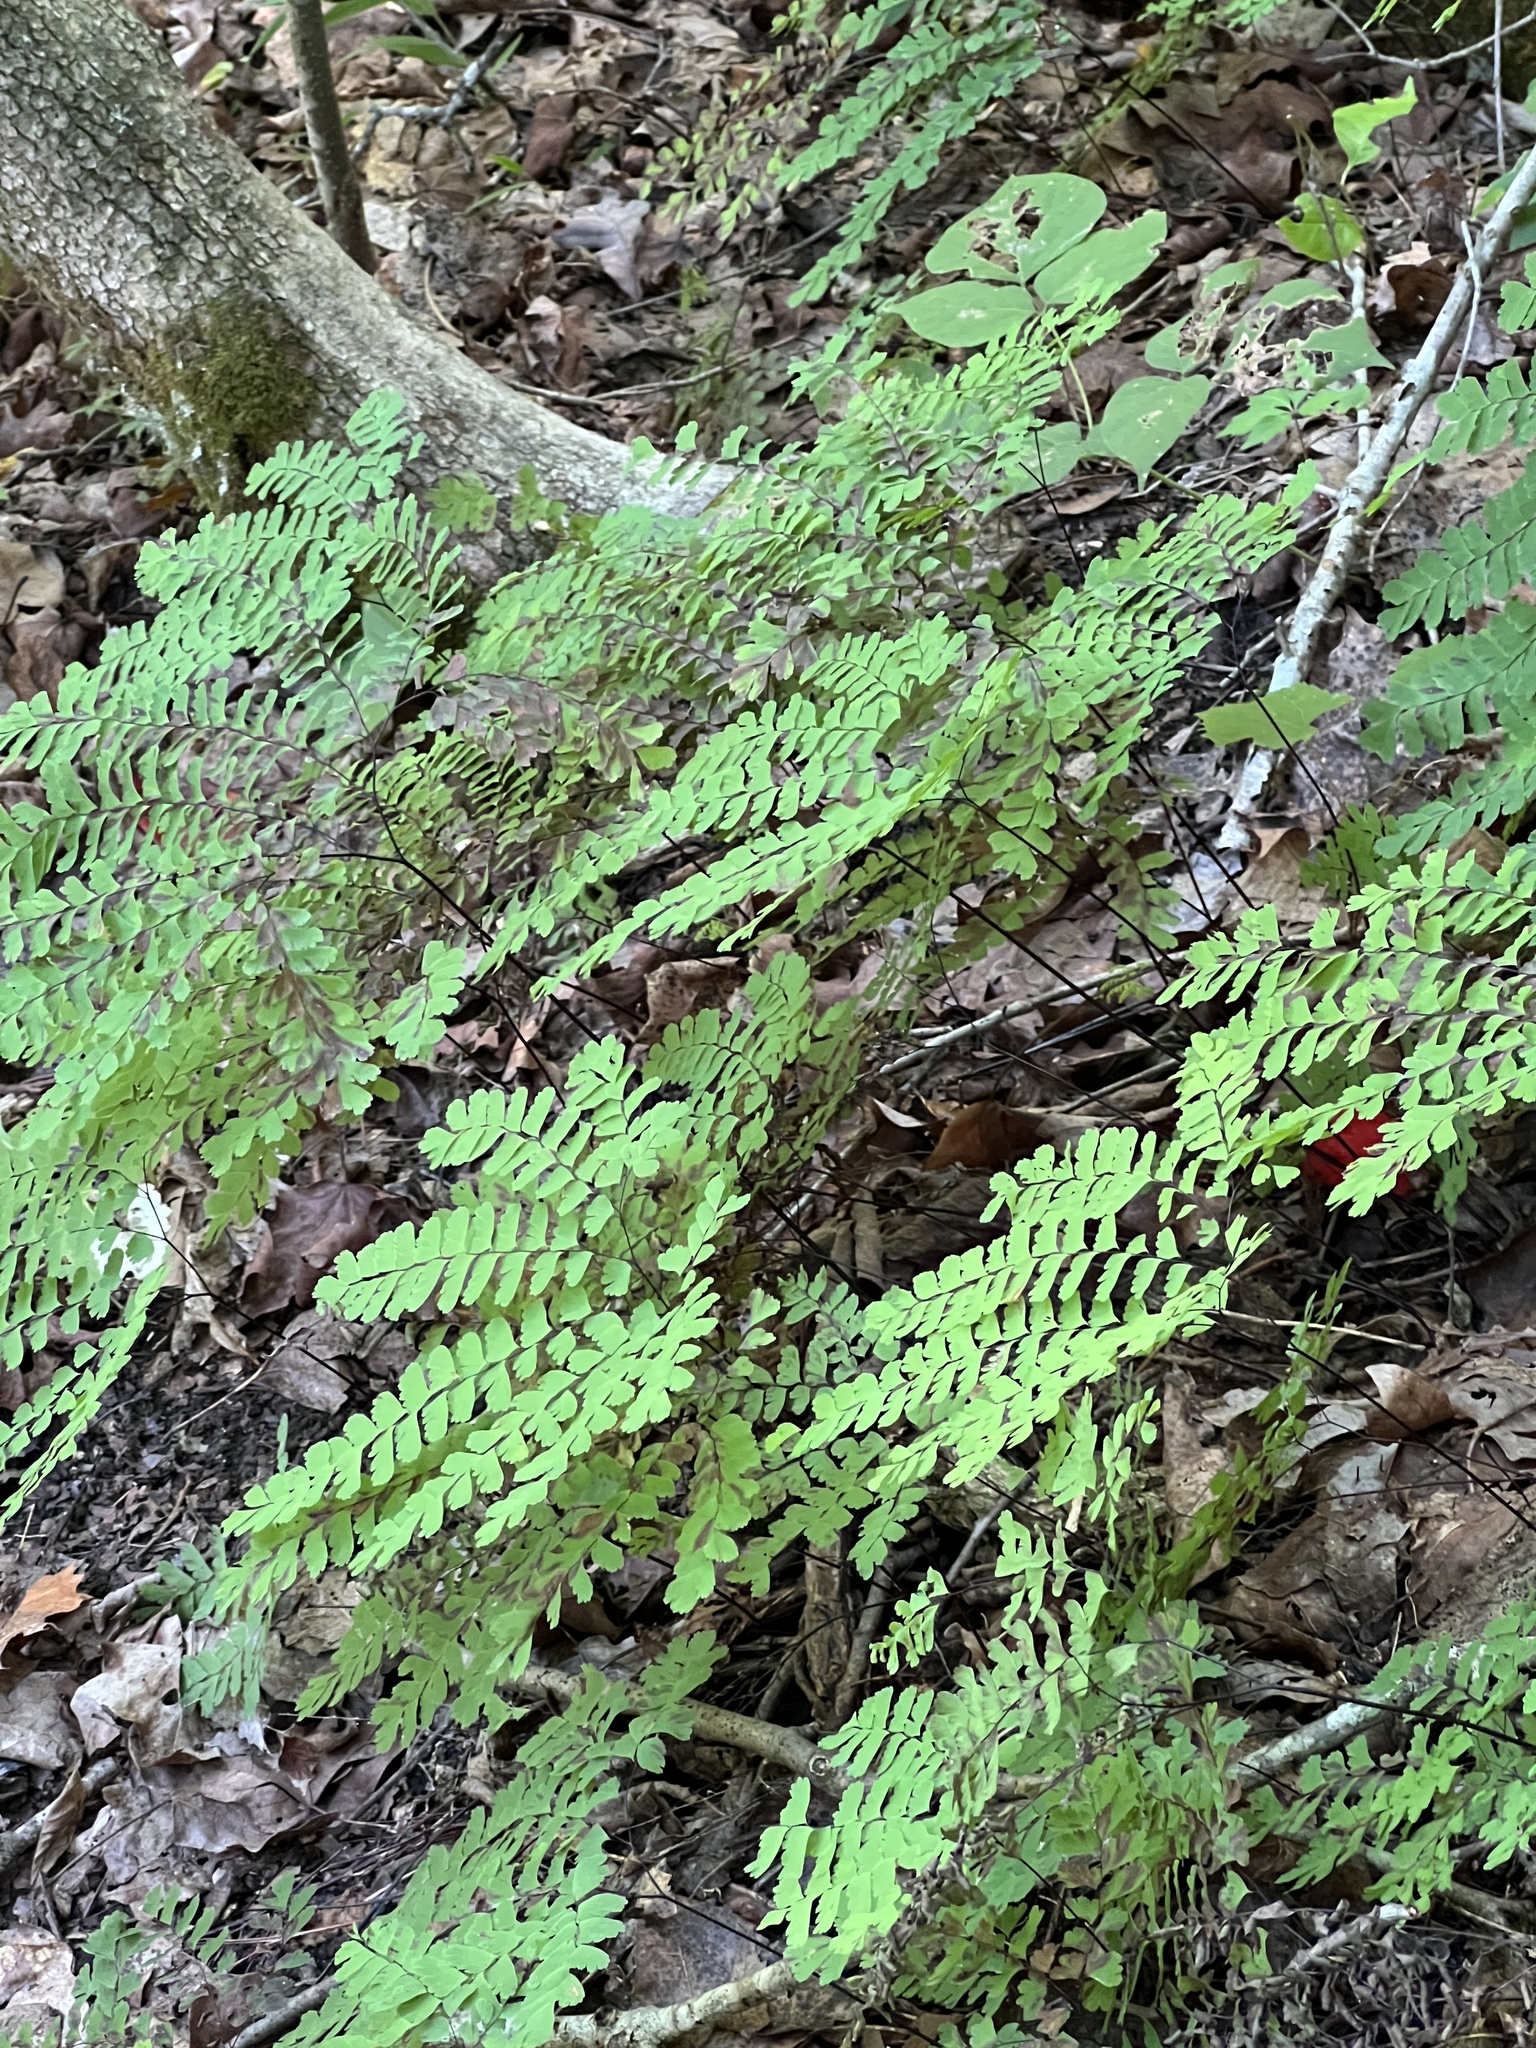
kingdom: Plantae
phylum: Tracheophyta
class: Polypodiopsida
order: Polypodiales
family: Pteridaceae
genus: Adiantum
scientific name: Adiantum pedatum
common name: Five-finger fern
